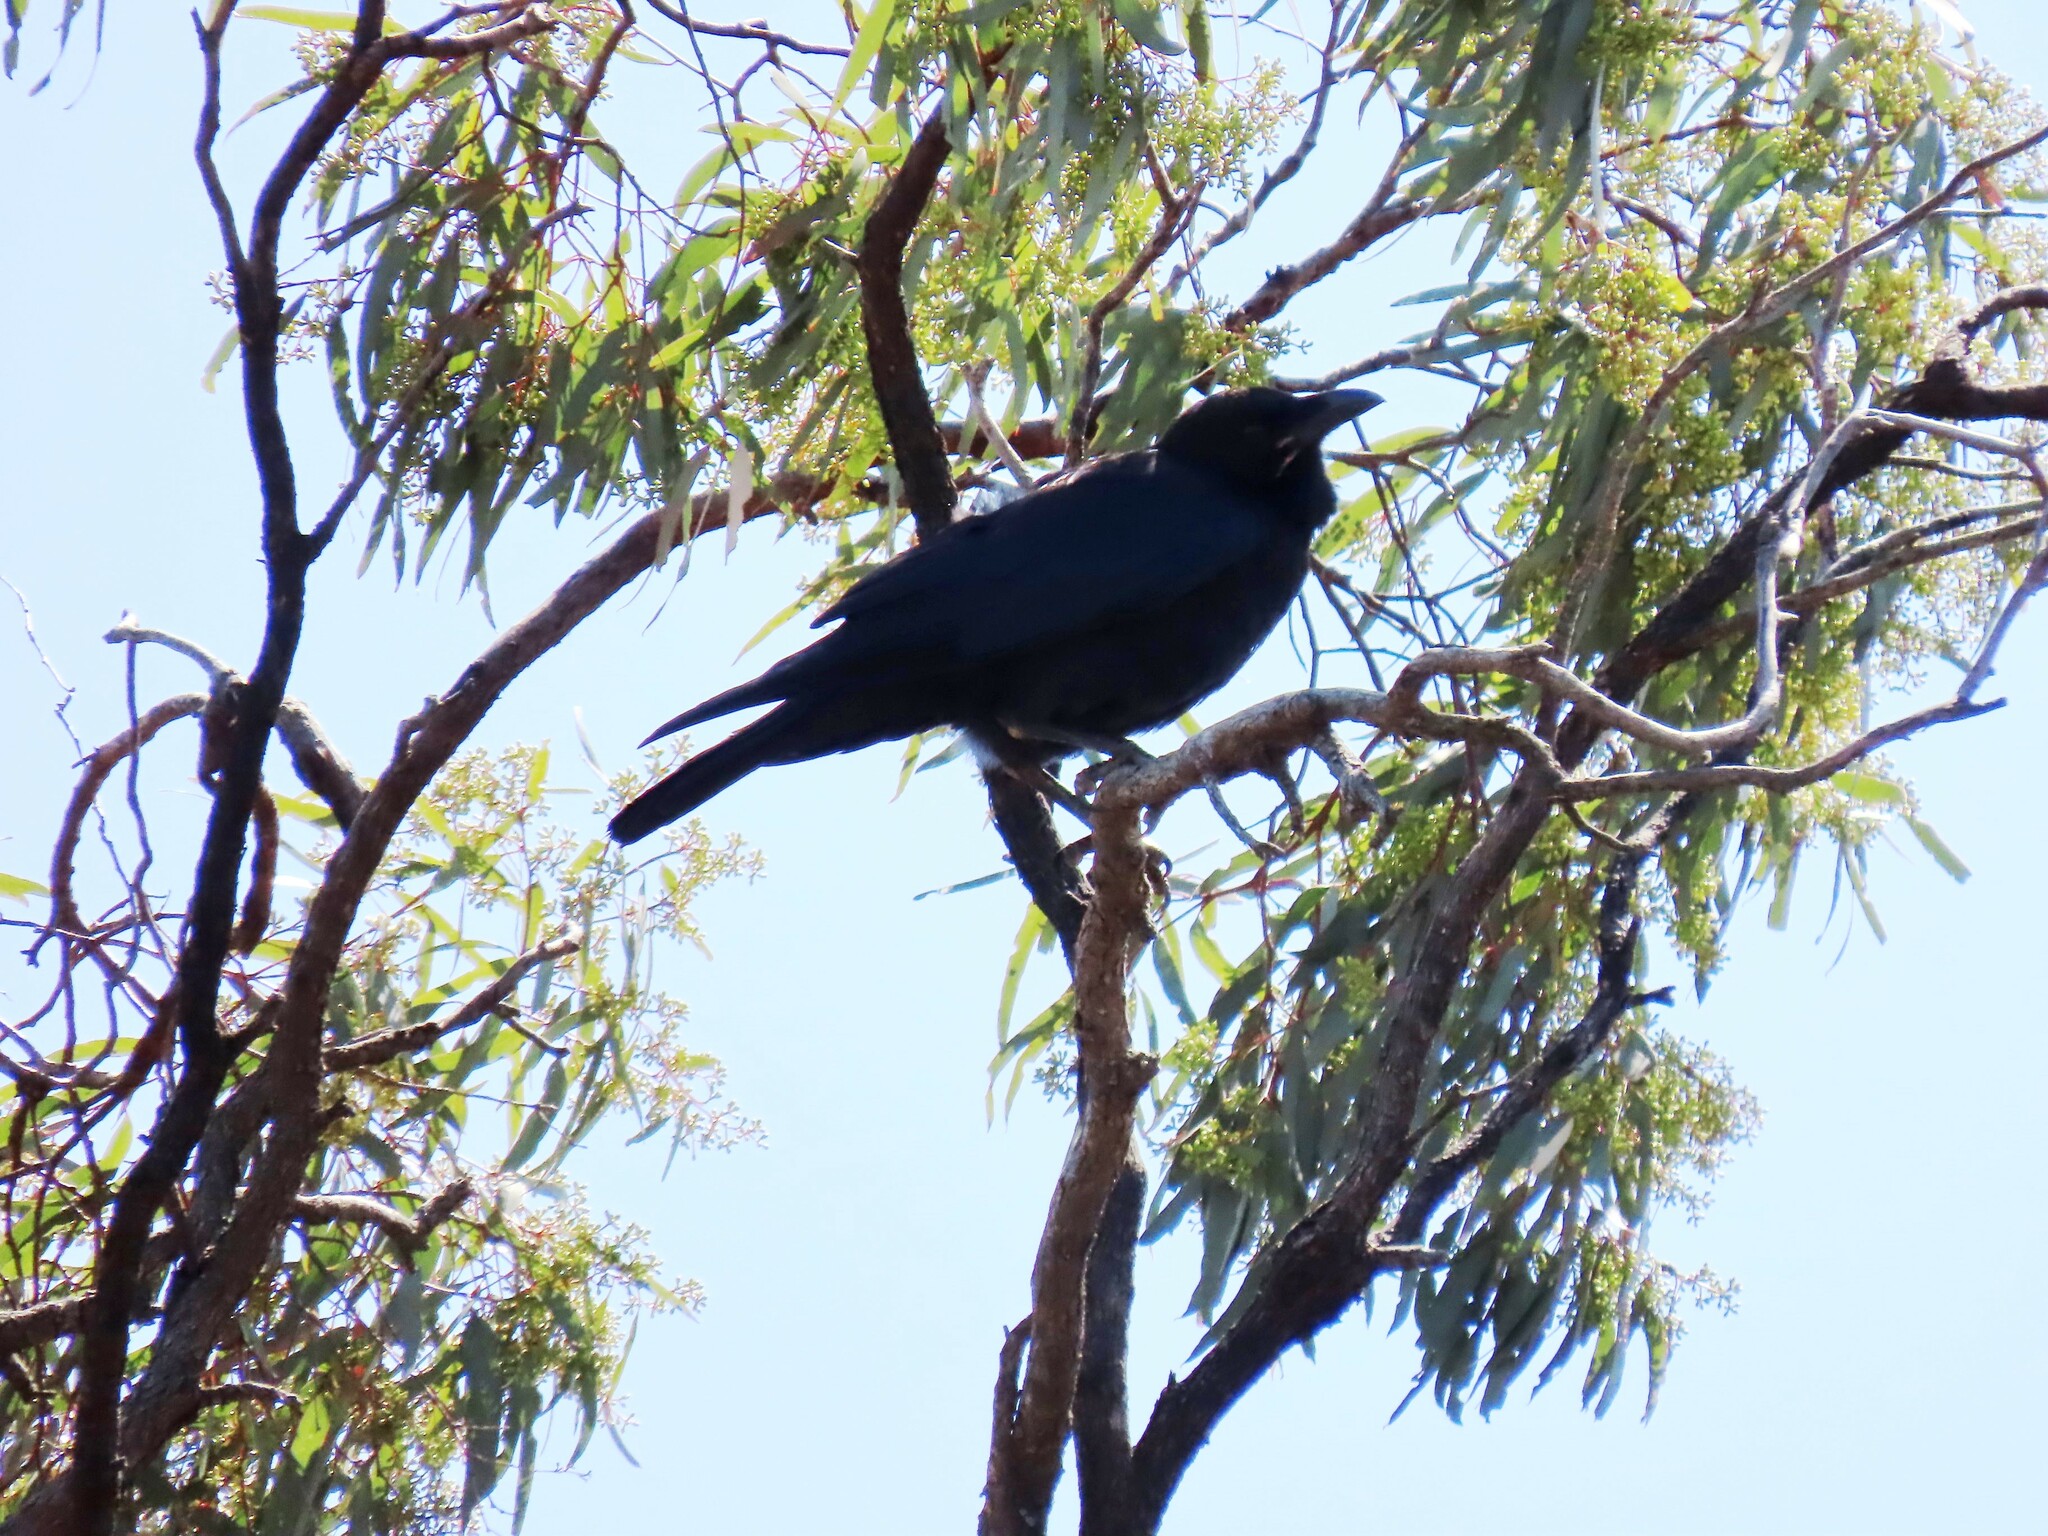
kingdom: Animalia
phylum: Chordata
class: Aves
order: Passeriformes
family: Corvidae
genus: Corvus
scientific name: Corvus coronoides
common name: Australian raven
